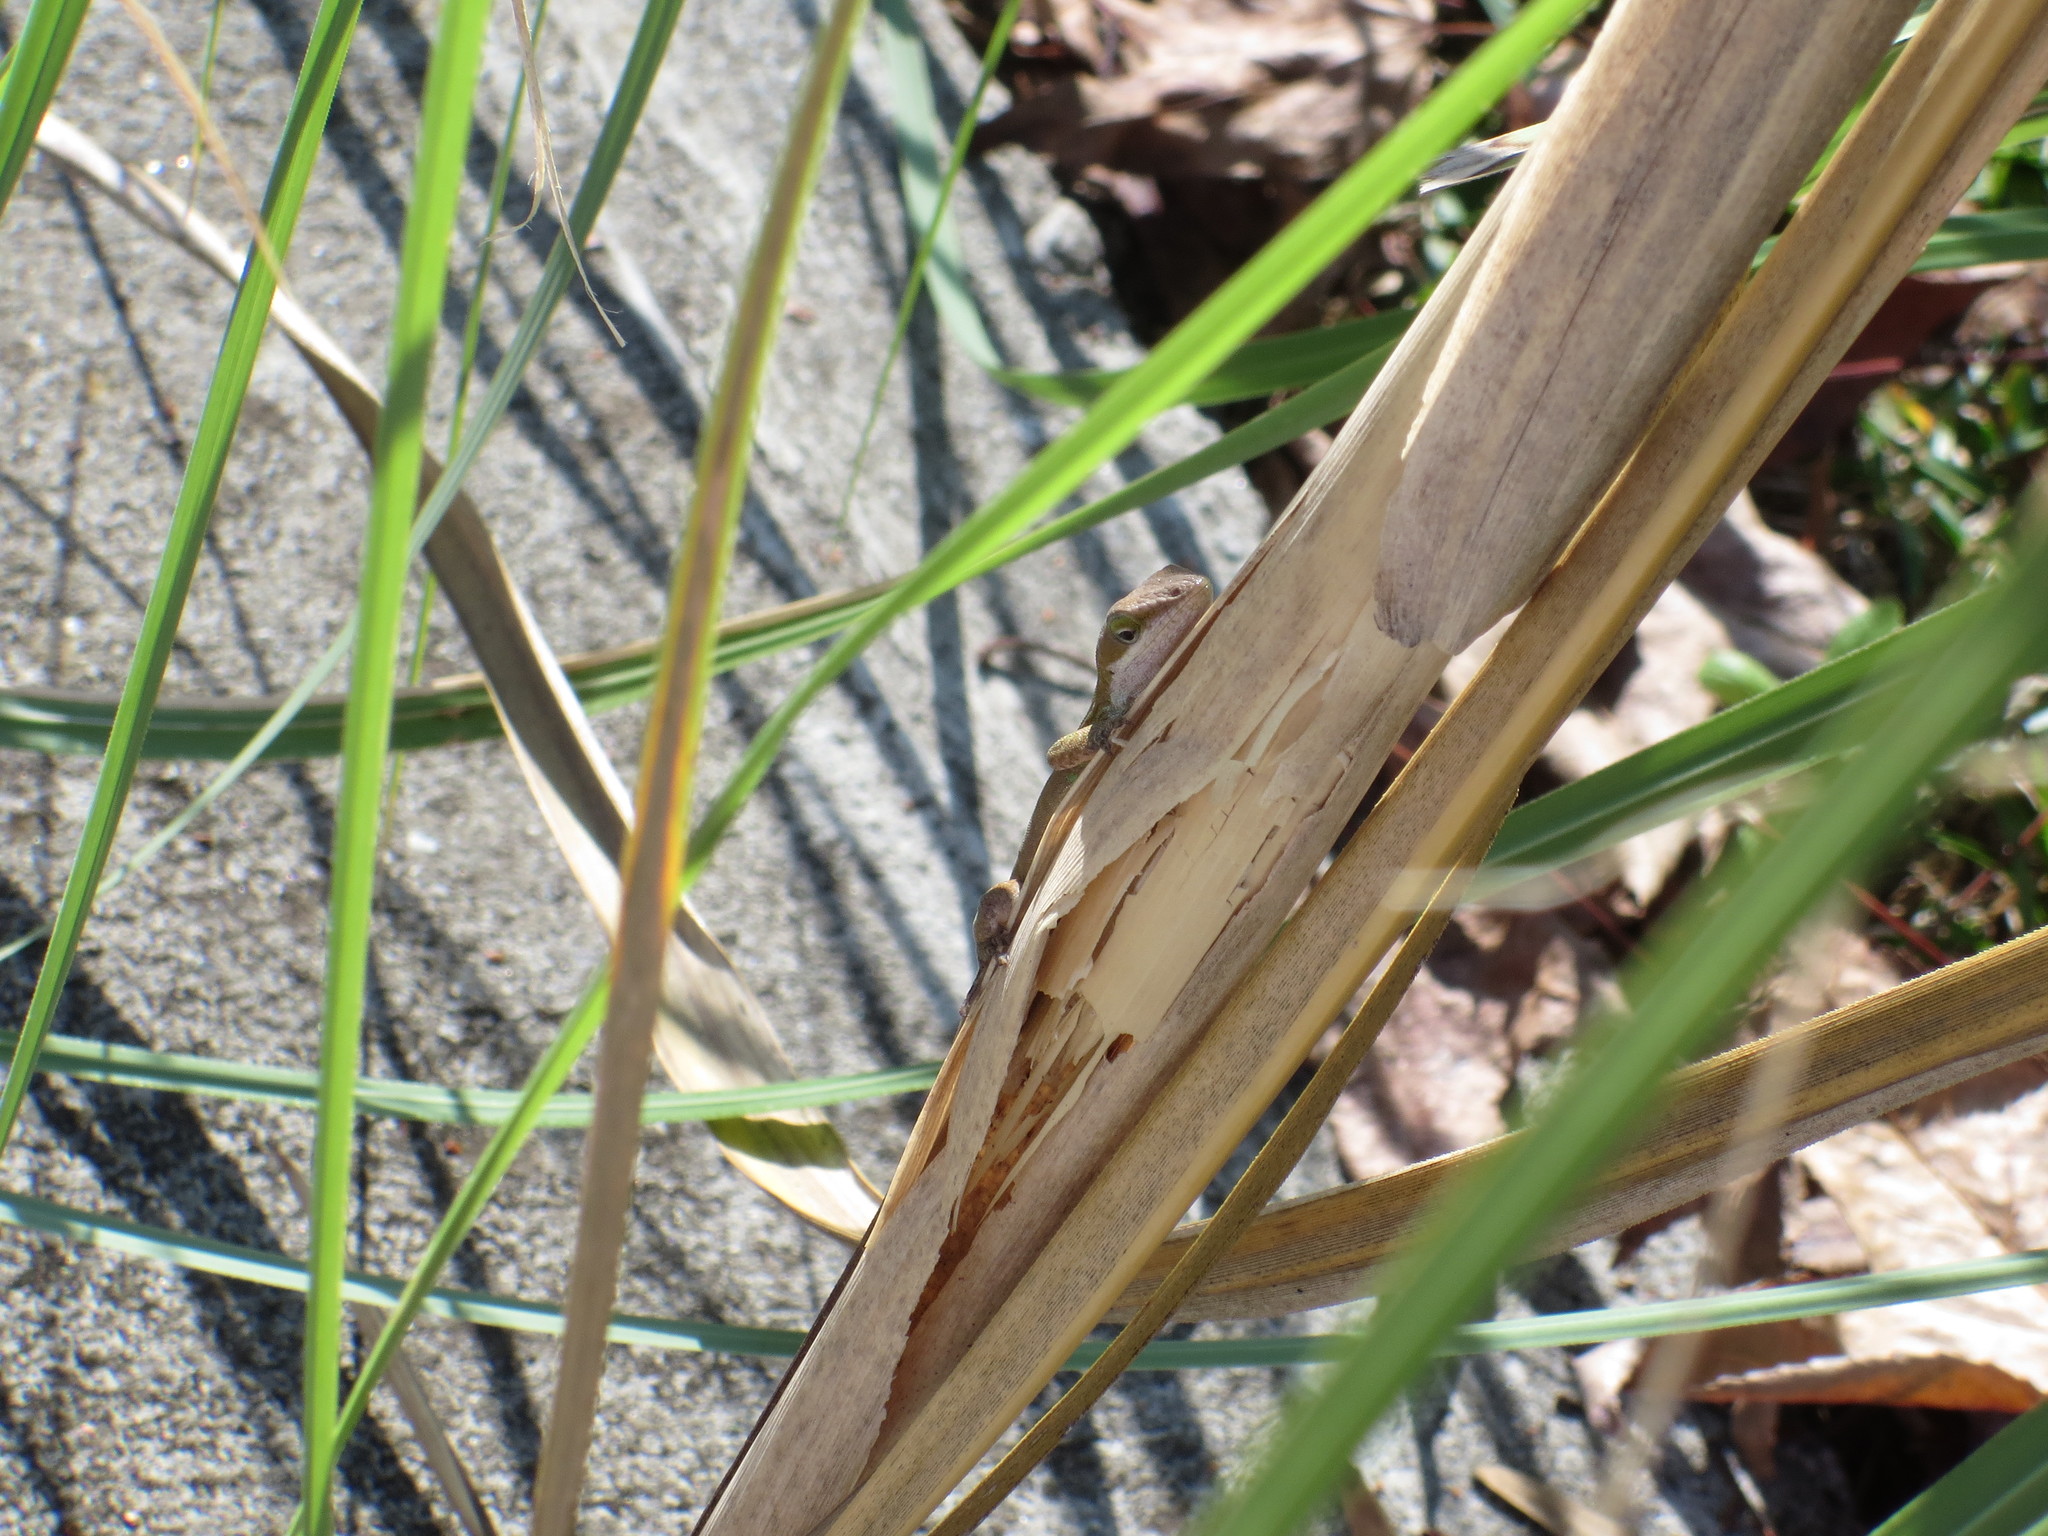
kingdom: Animalia
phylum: Chordata
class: Squamata
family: Dactyloidae
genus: Anolis
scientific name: Anolis carolinensis
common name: Green anole
